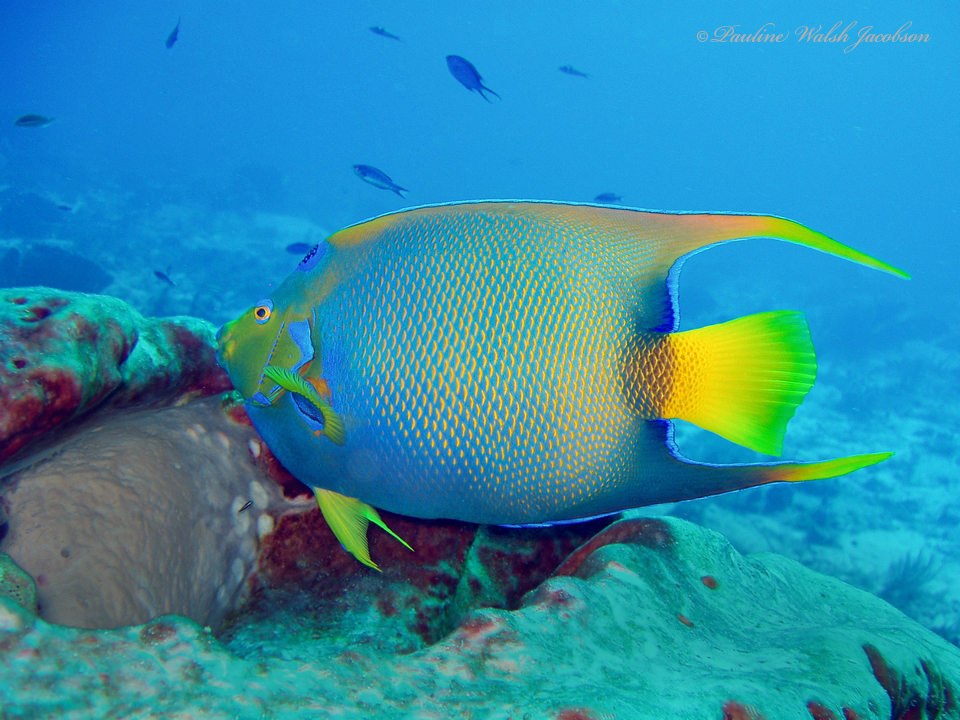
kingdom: Animalia
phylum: Chordata
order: Perciformes
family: Pomacanthidae
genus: Holacanthus
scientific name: Holacanthus ciliaris
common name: Queen angelfish
